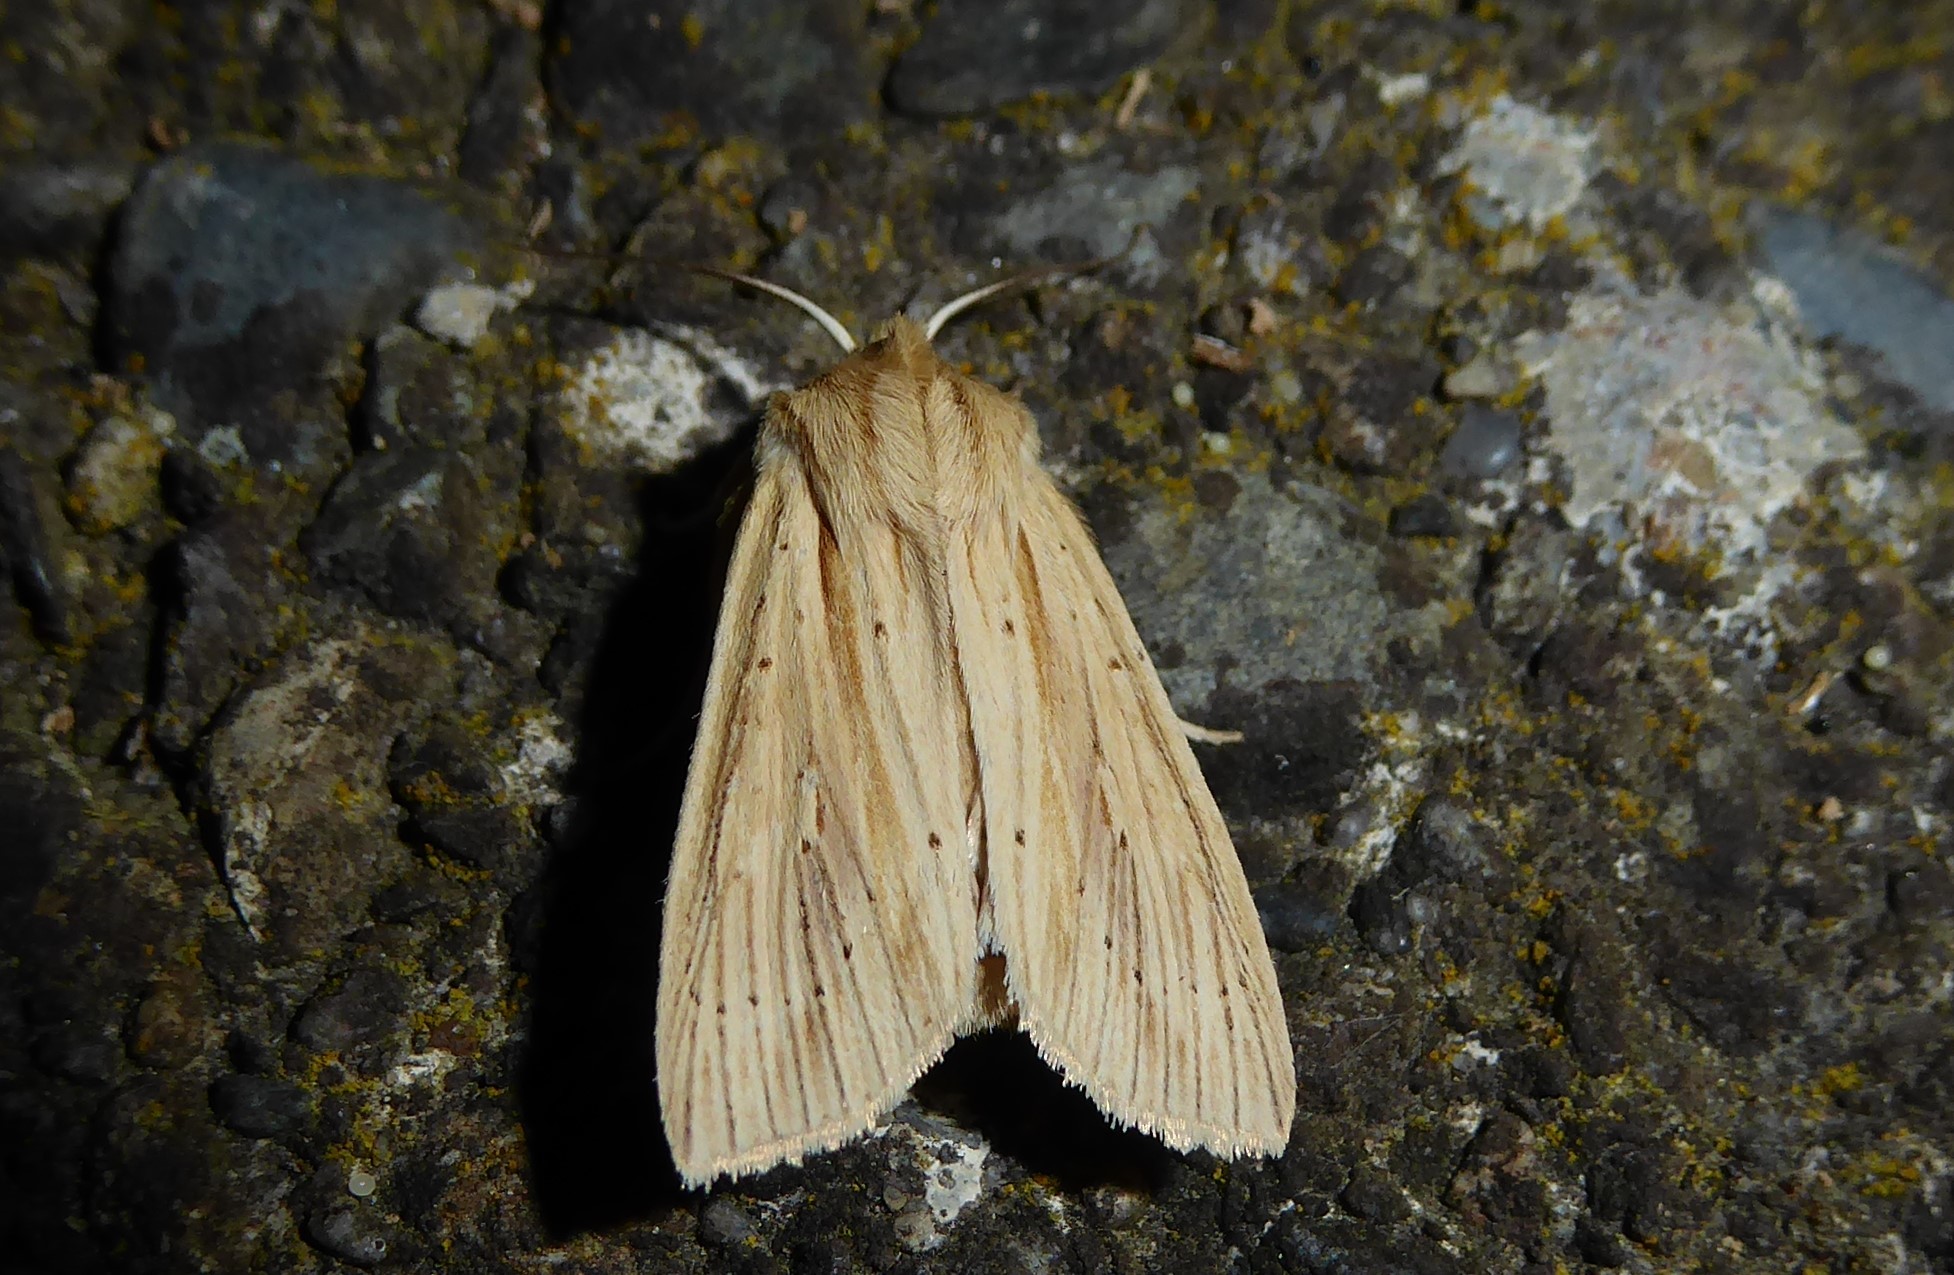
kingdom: Animalia
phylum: Arthropoda
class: Insecta
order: Lepidoptera
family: Noctuidae
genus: Ichneutica
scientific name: Ichneutica semivittata
